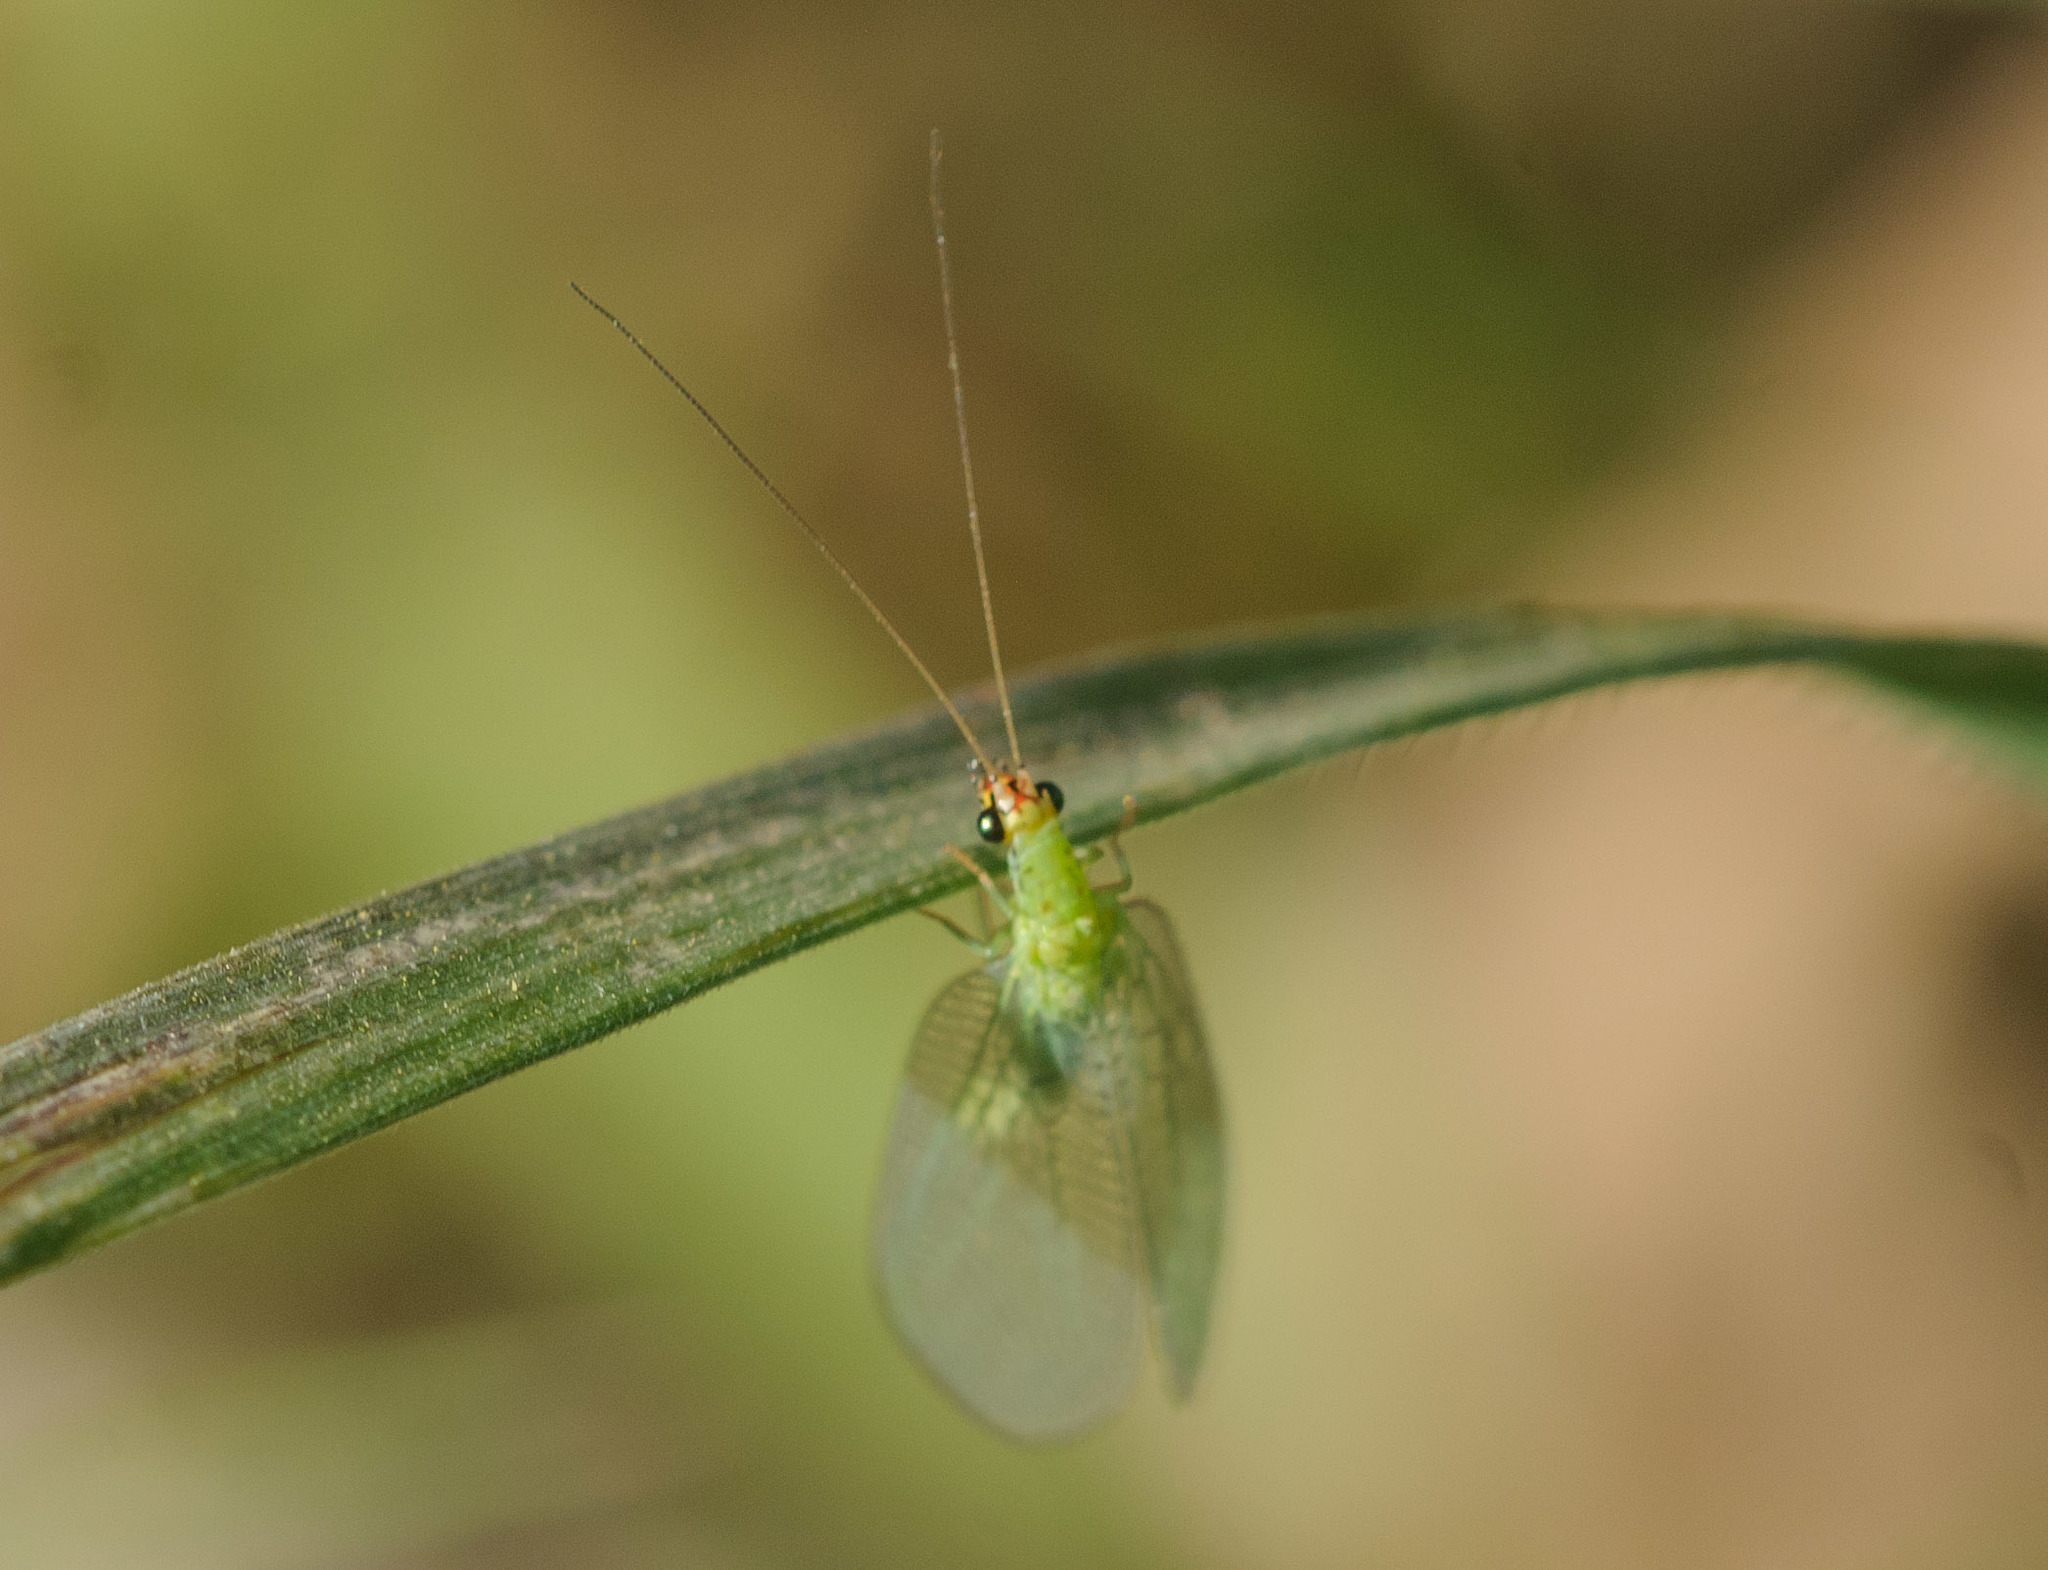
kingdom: Animalia
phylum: Arthropoda
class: Insecta
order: Neuroptera
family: Chrysopidae
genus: Chrysopa
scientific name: Chrysopa oculata
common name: Golden-eyed lacewing
